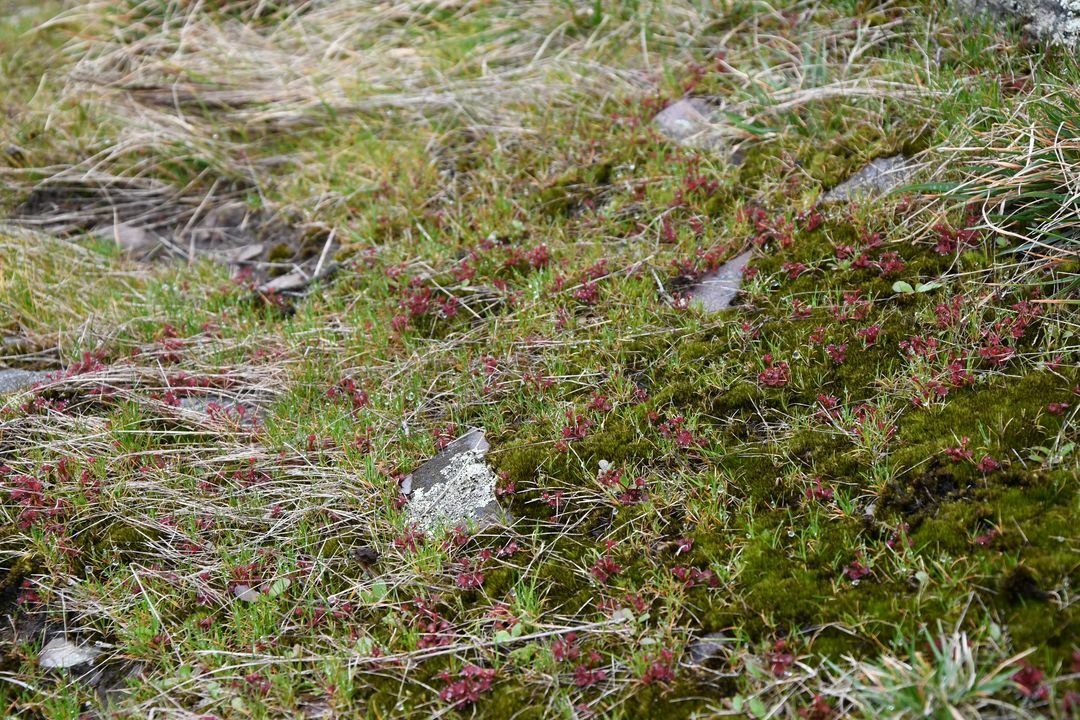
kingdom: Plantae
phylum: Tracheophyta
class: Magnoliopsida
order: Caryophyllales
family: Droseraceae
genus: Drosera
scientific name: Drosera monticola
